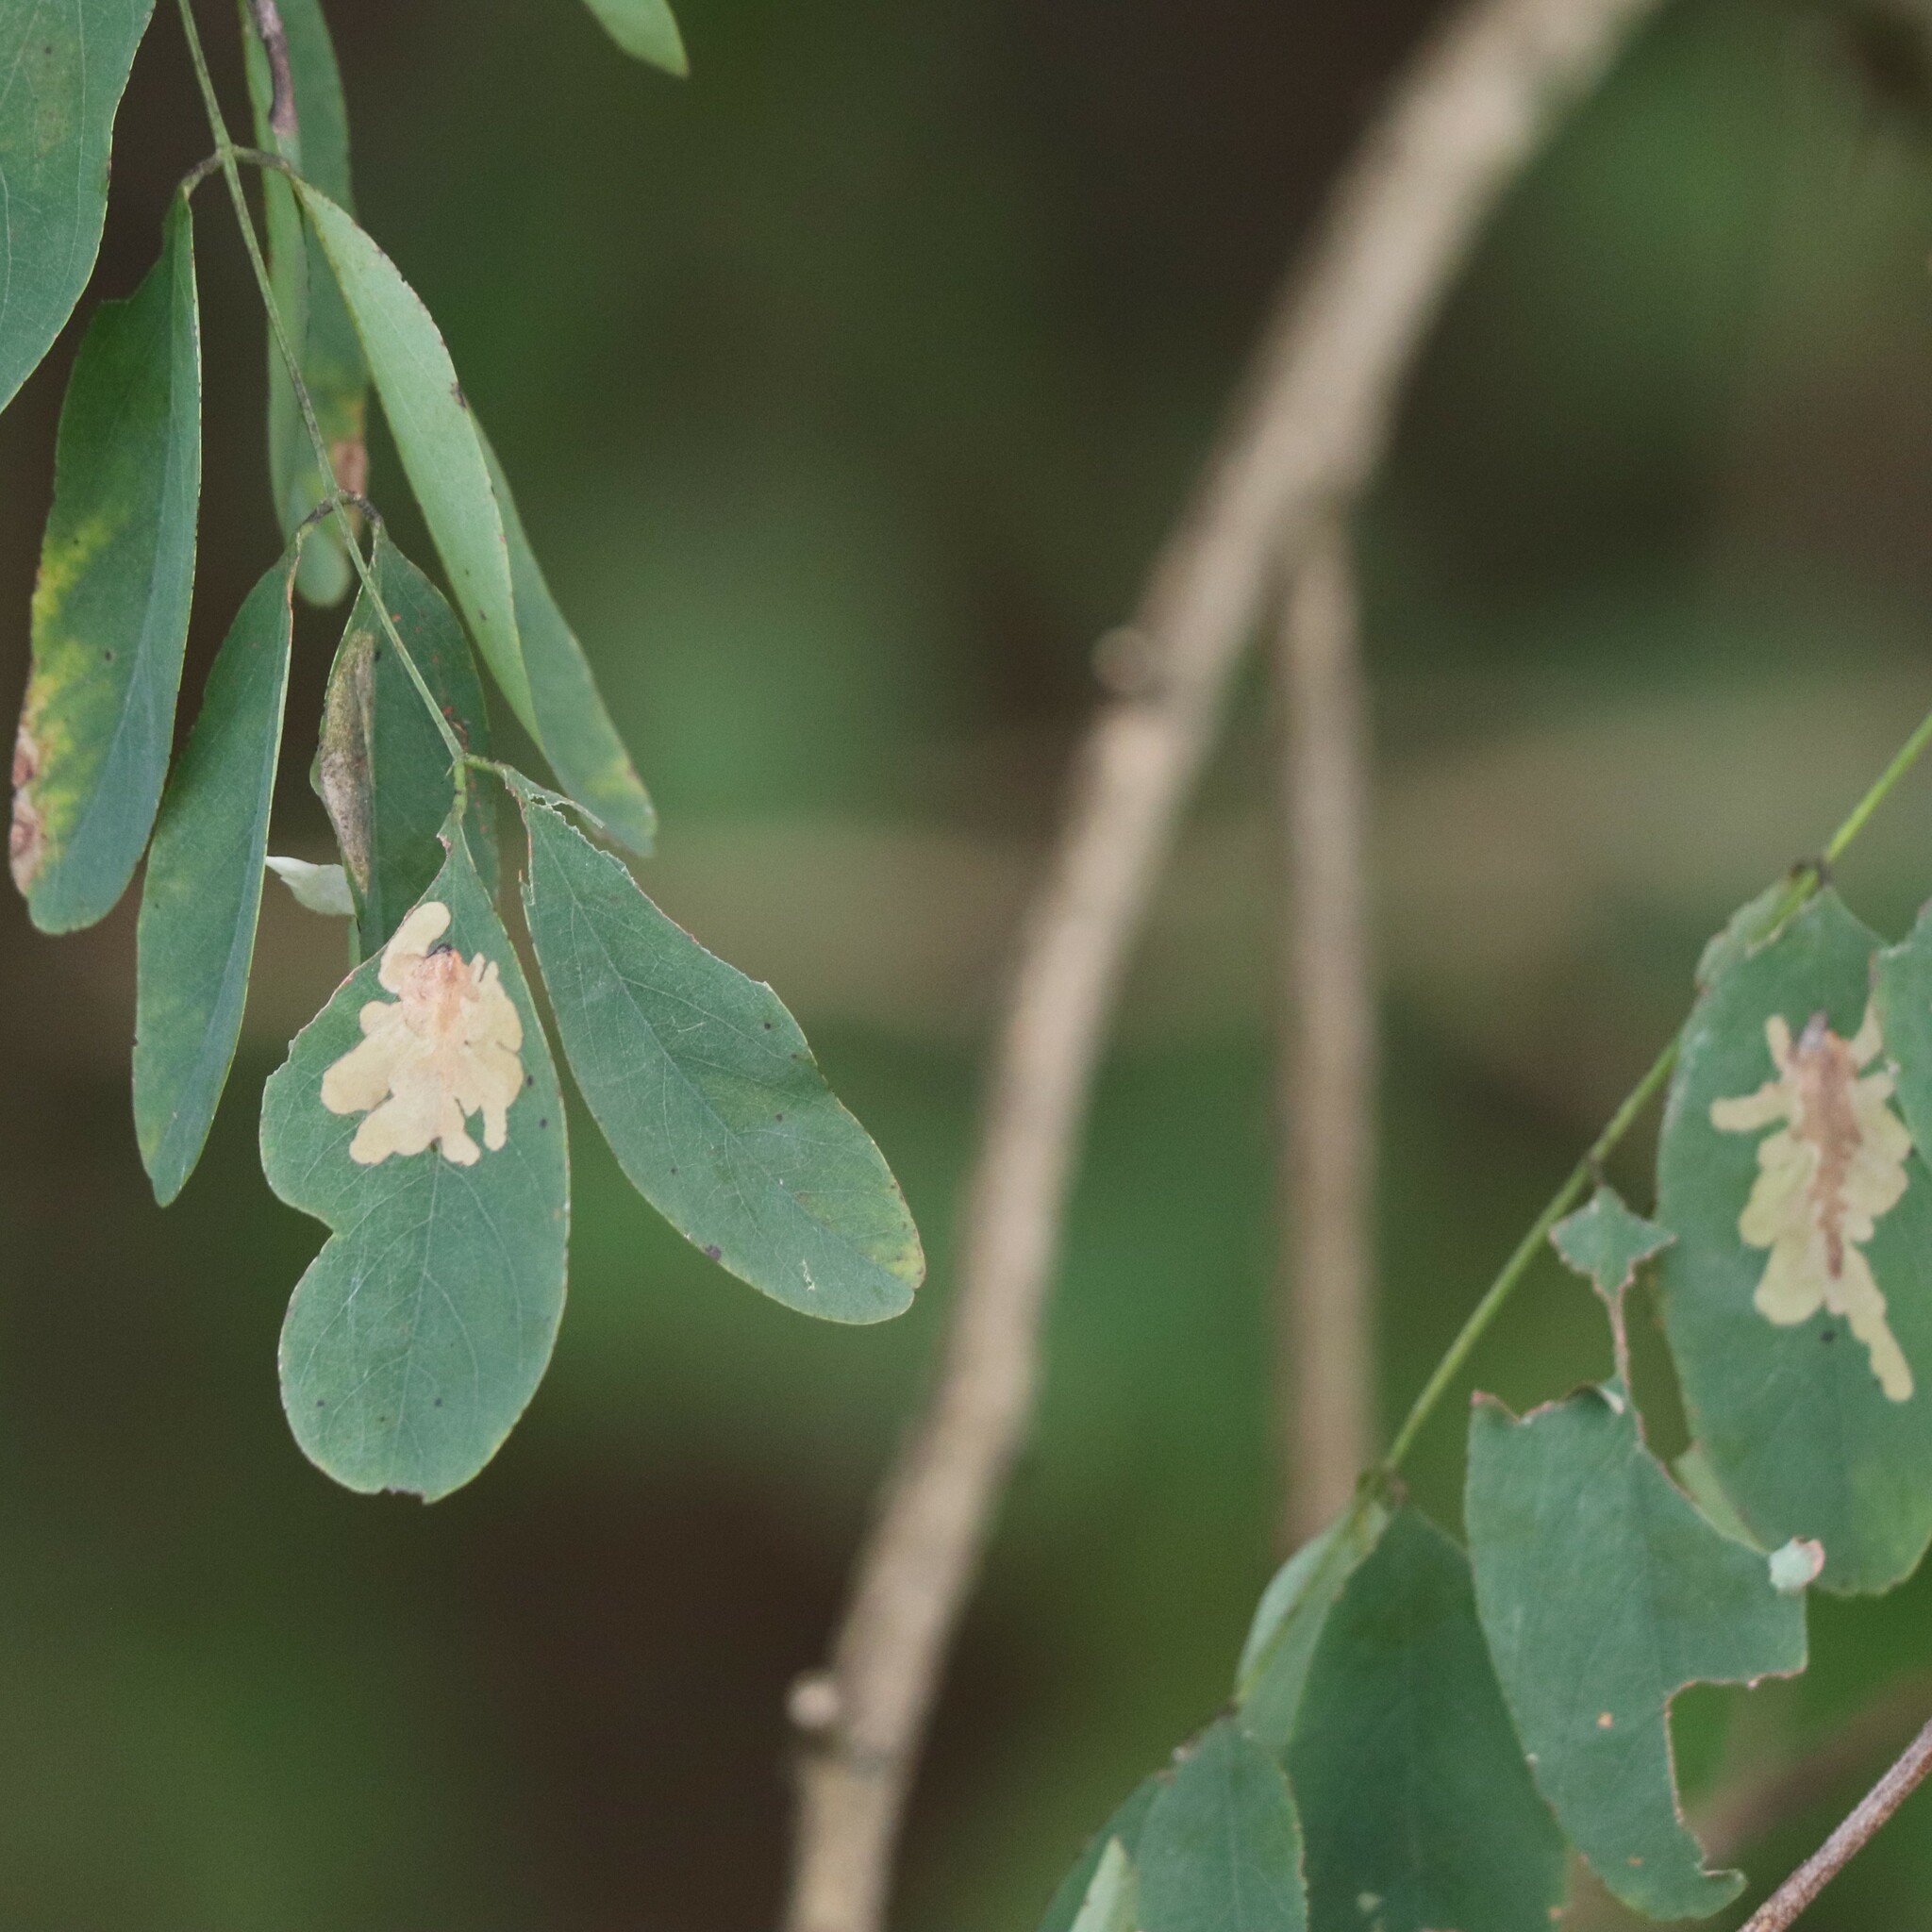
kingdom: Animalia
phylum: Arthropoda
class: Insecta
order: Lepidoptera
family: Gracillariidae
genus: Parectopa
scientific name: Parectopa robiniella
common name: Locust digitate leafminer
